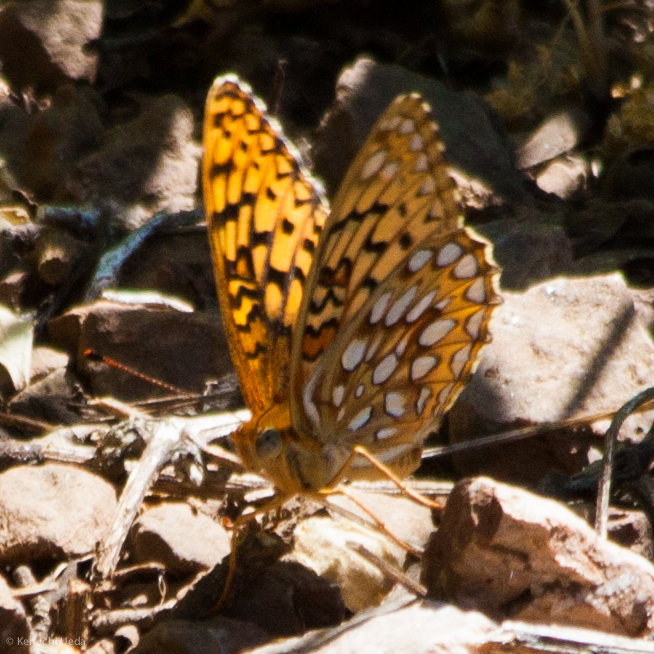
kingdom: Animalia
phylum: Arthropoda
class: Insecta
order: Lepidoptera
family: Nymphalidae
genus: Speyeria
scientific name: Speyeria callippe
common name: Callippe fritillary
